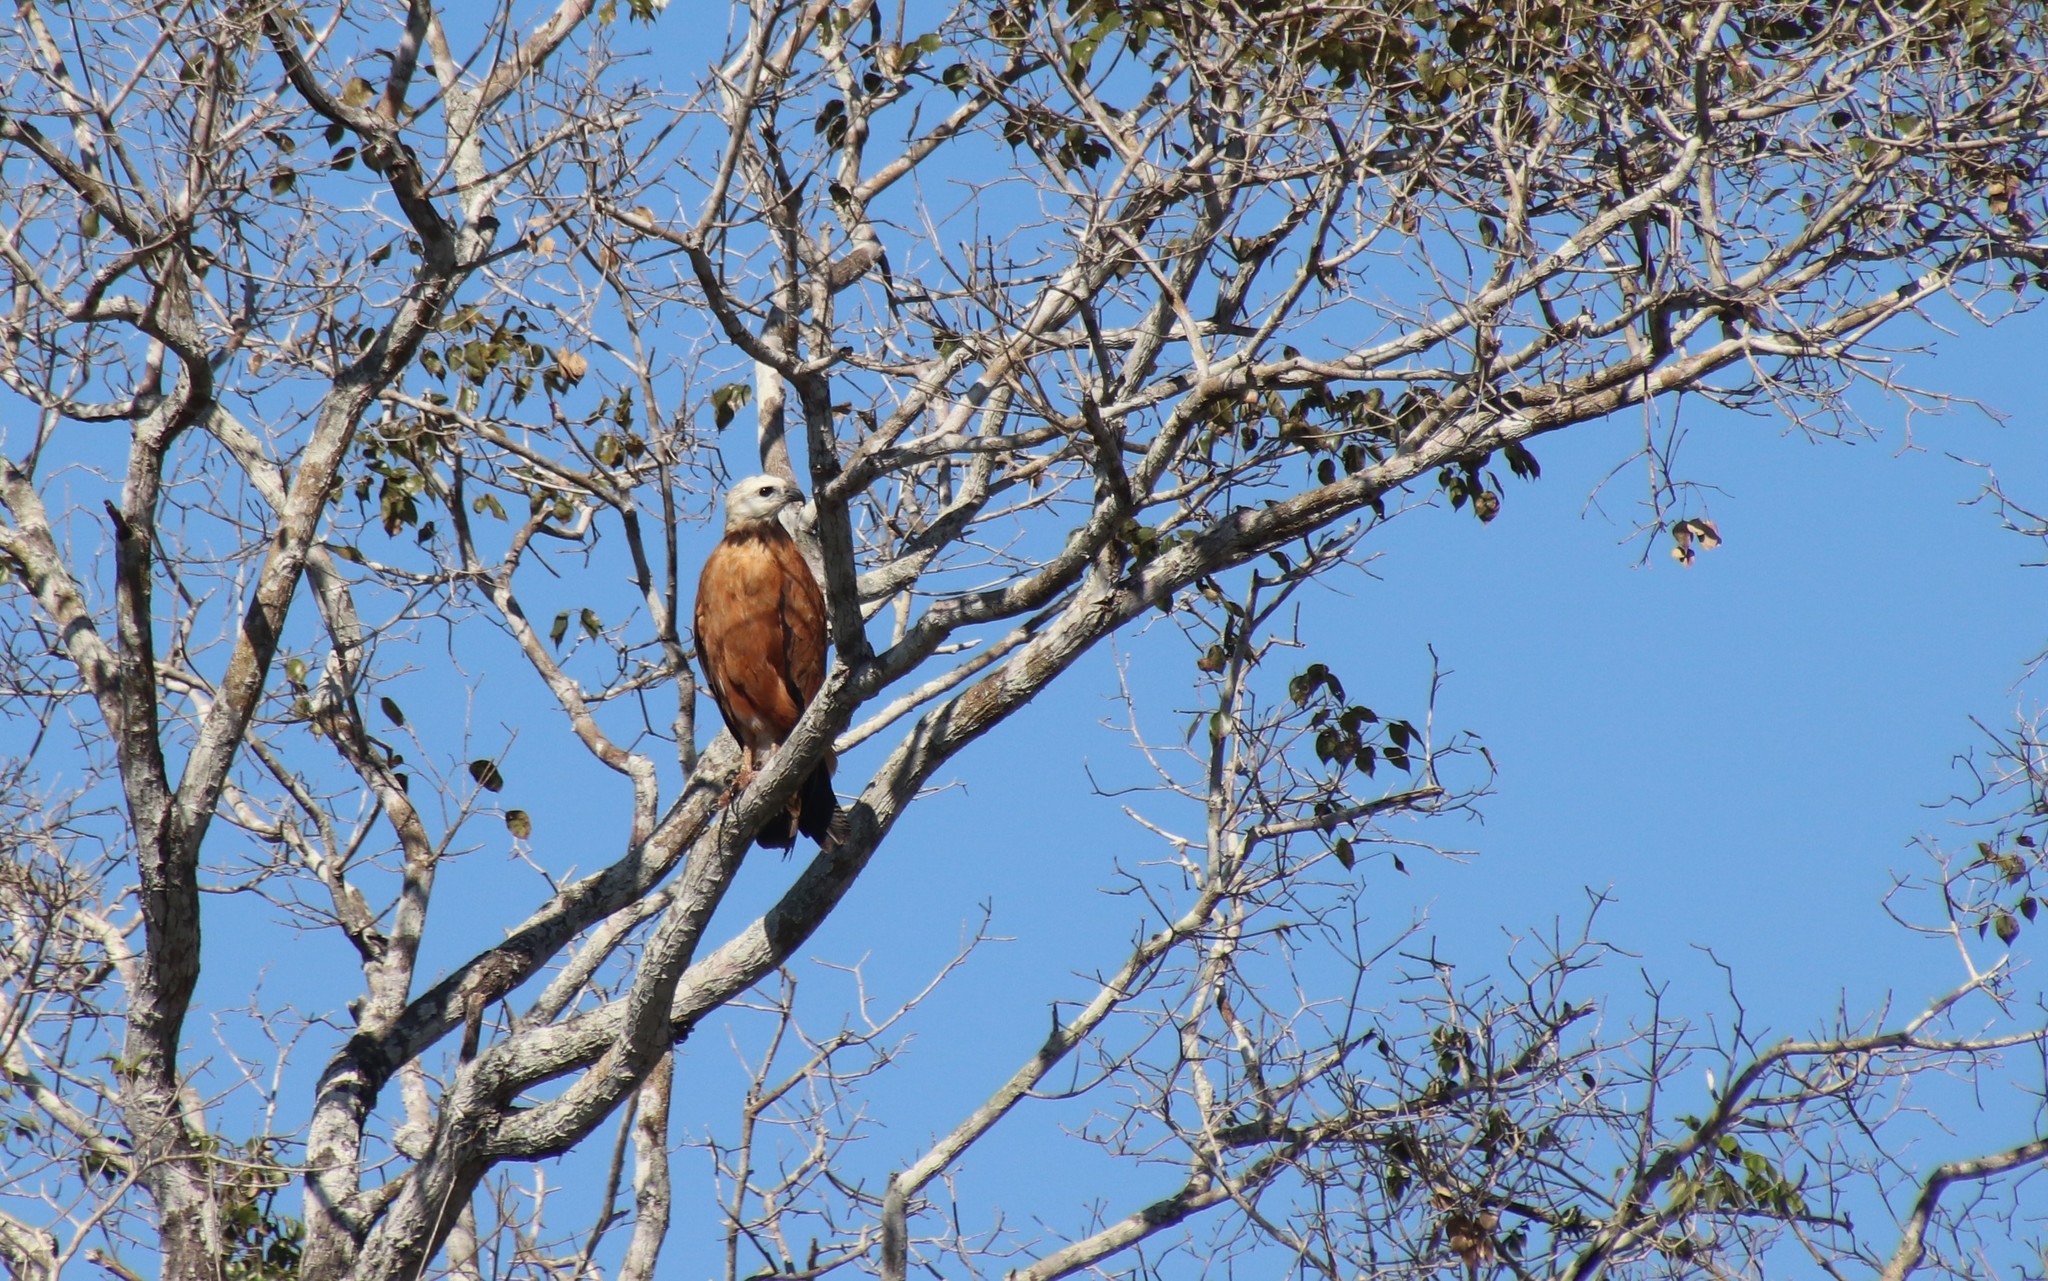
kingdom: Animalia
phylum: Chordata
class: Aves
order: Accipitriformes
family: Accipitridae
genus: Busarellus
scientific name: Busarellus nigricollis
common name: Black-collared hawk
